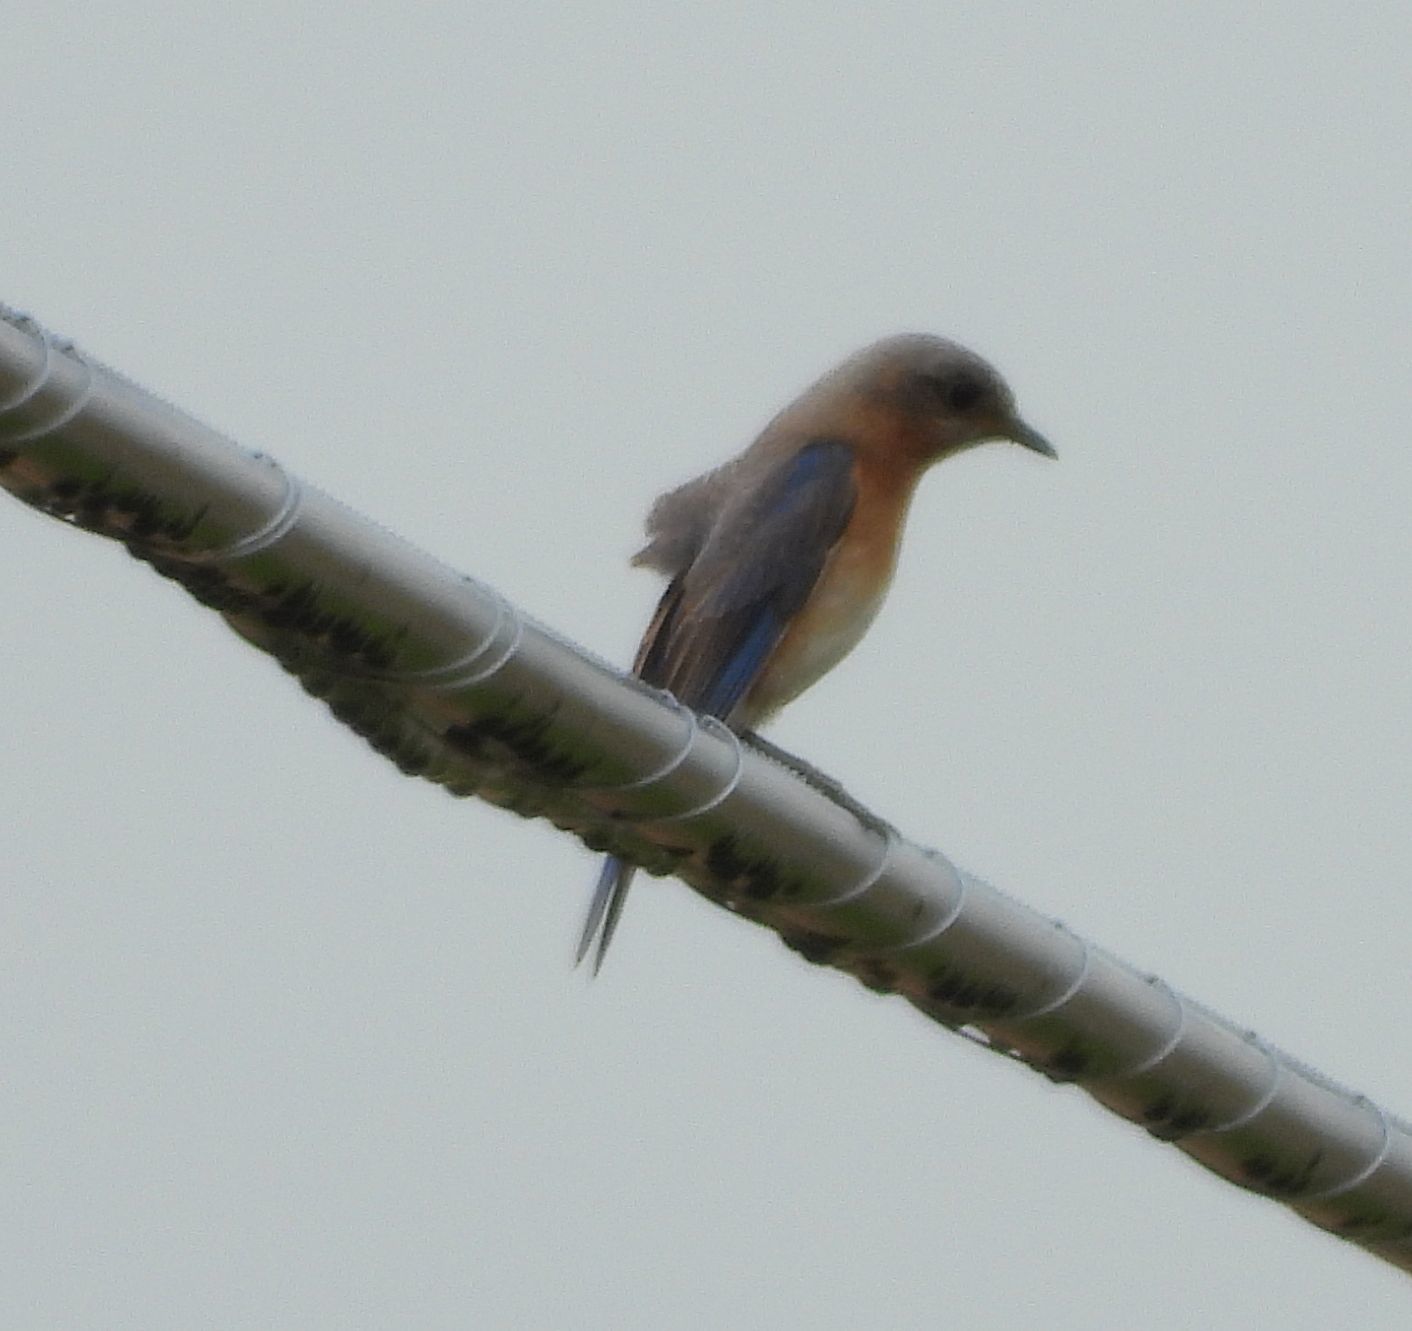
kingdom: Animalia
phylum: Chordata
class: Aves
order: Passeriformes
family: Turdidae
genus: Sialia
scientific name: Sialia sialis
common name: Eastern bluebird
